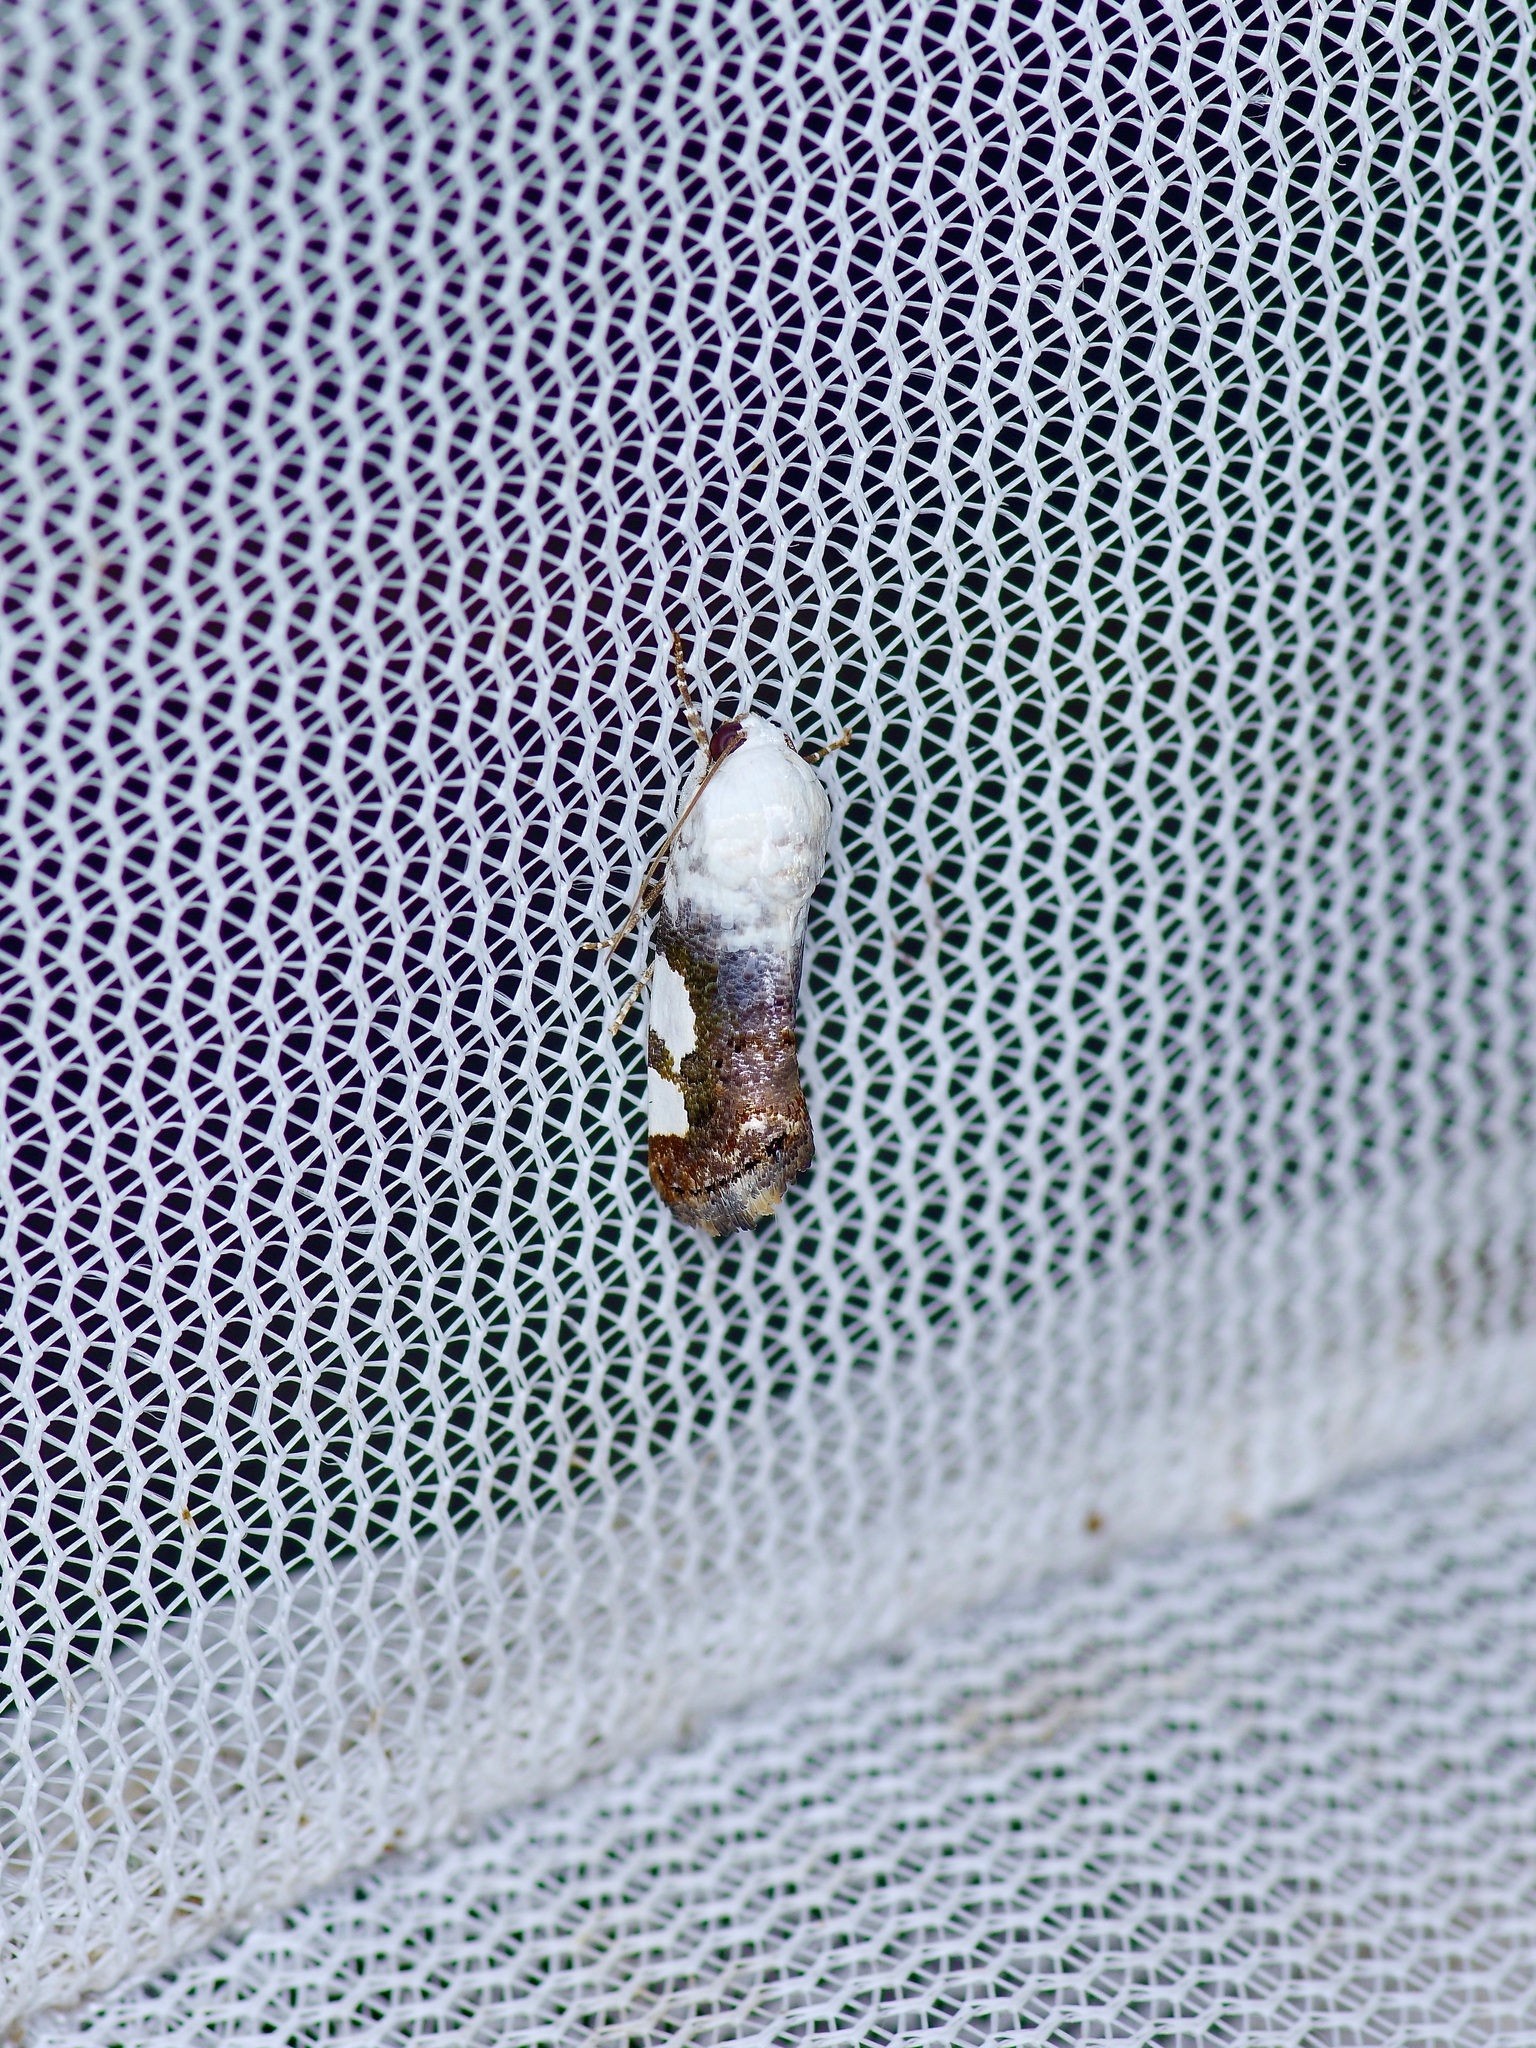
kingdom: Animalia
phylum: Arthropoda
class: Insecta
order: Lepidoptera
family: Noctuidae
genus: Acontia
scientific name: Acontia quadriplaga
